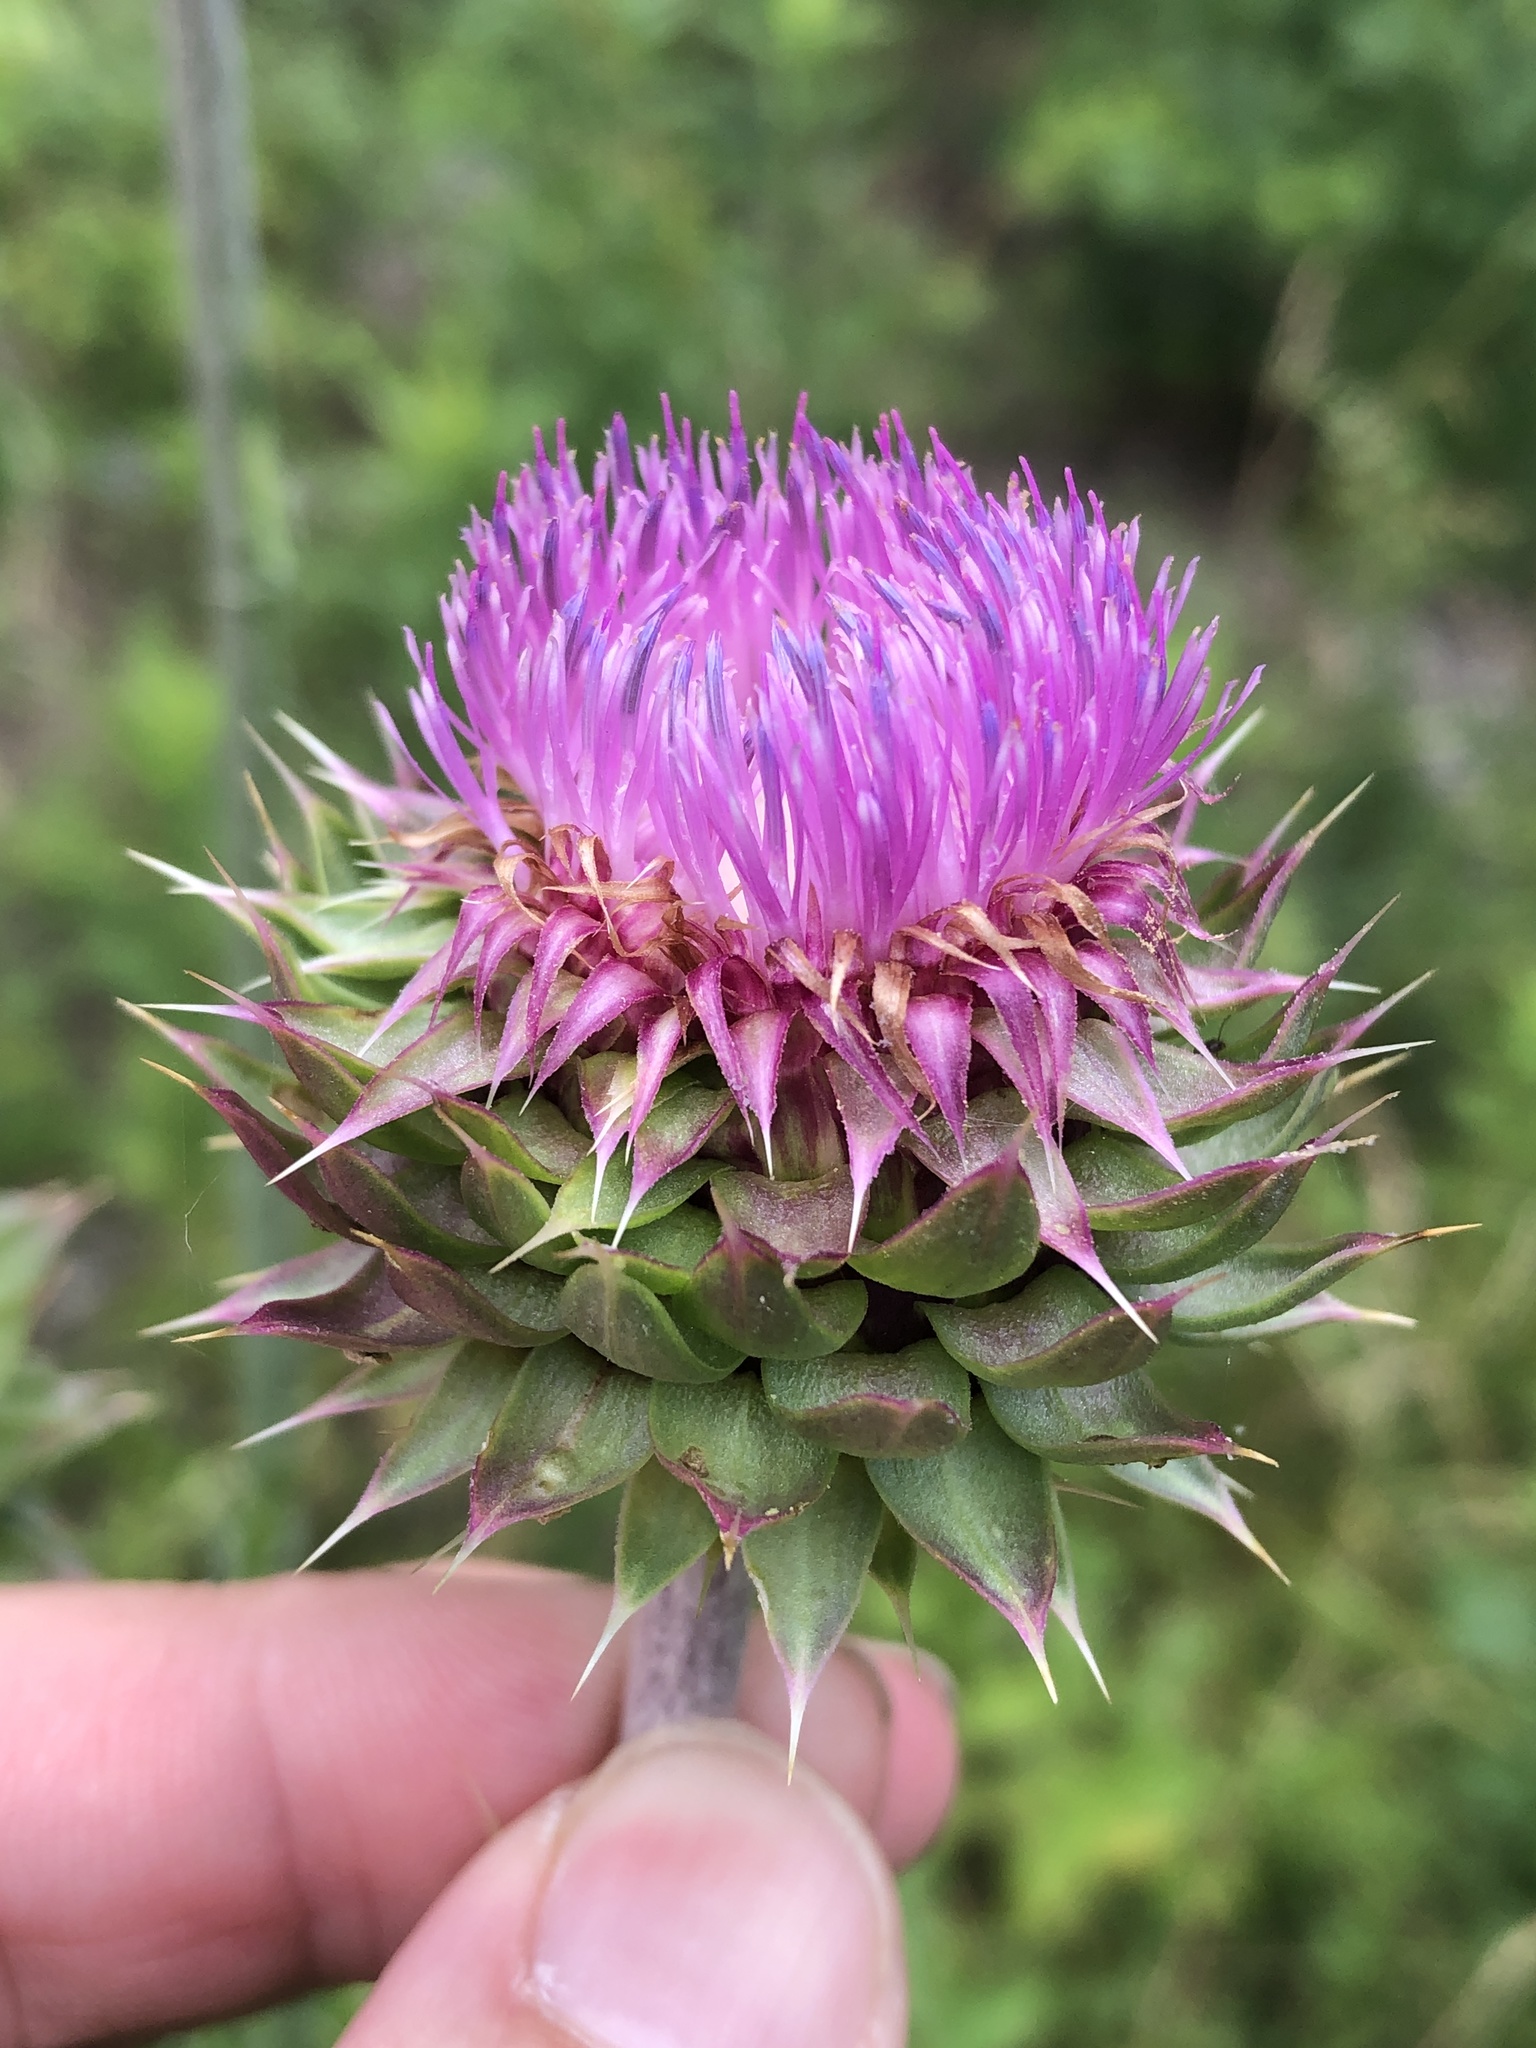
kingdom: Plantae
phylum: Tracheophyta
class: Magnoliopsida
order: Asterales
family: Asteraceae
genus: Carduus
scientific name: Carduus nutans
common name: Musk thistle
